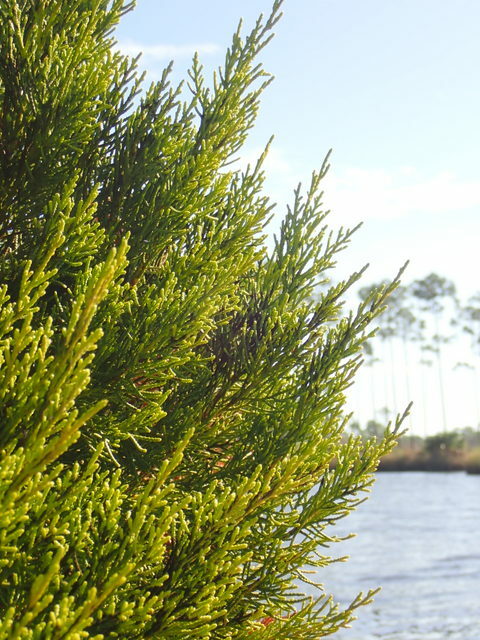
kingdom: Plantae
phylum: Tracheophyta
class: Pinopsida
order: Pinales
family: Cupressaceae
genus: Juniperus
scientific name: Juniperus virginiana
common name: Red juniper
